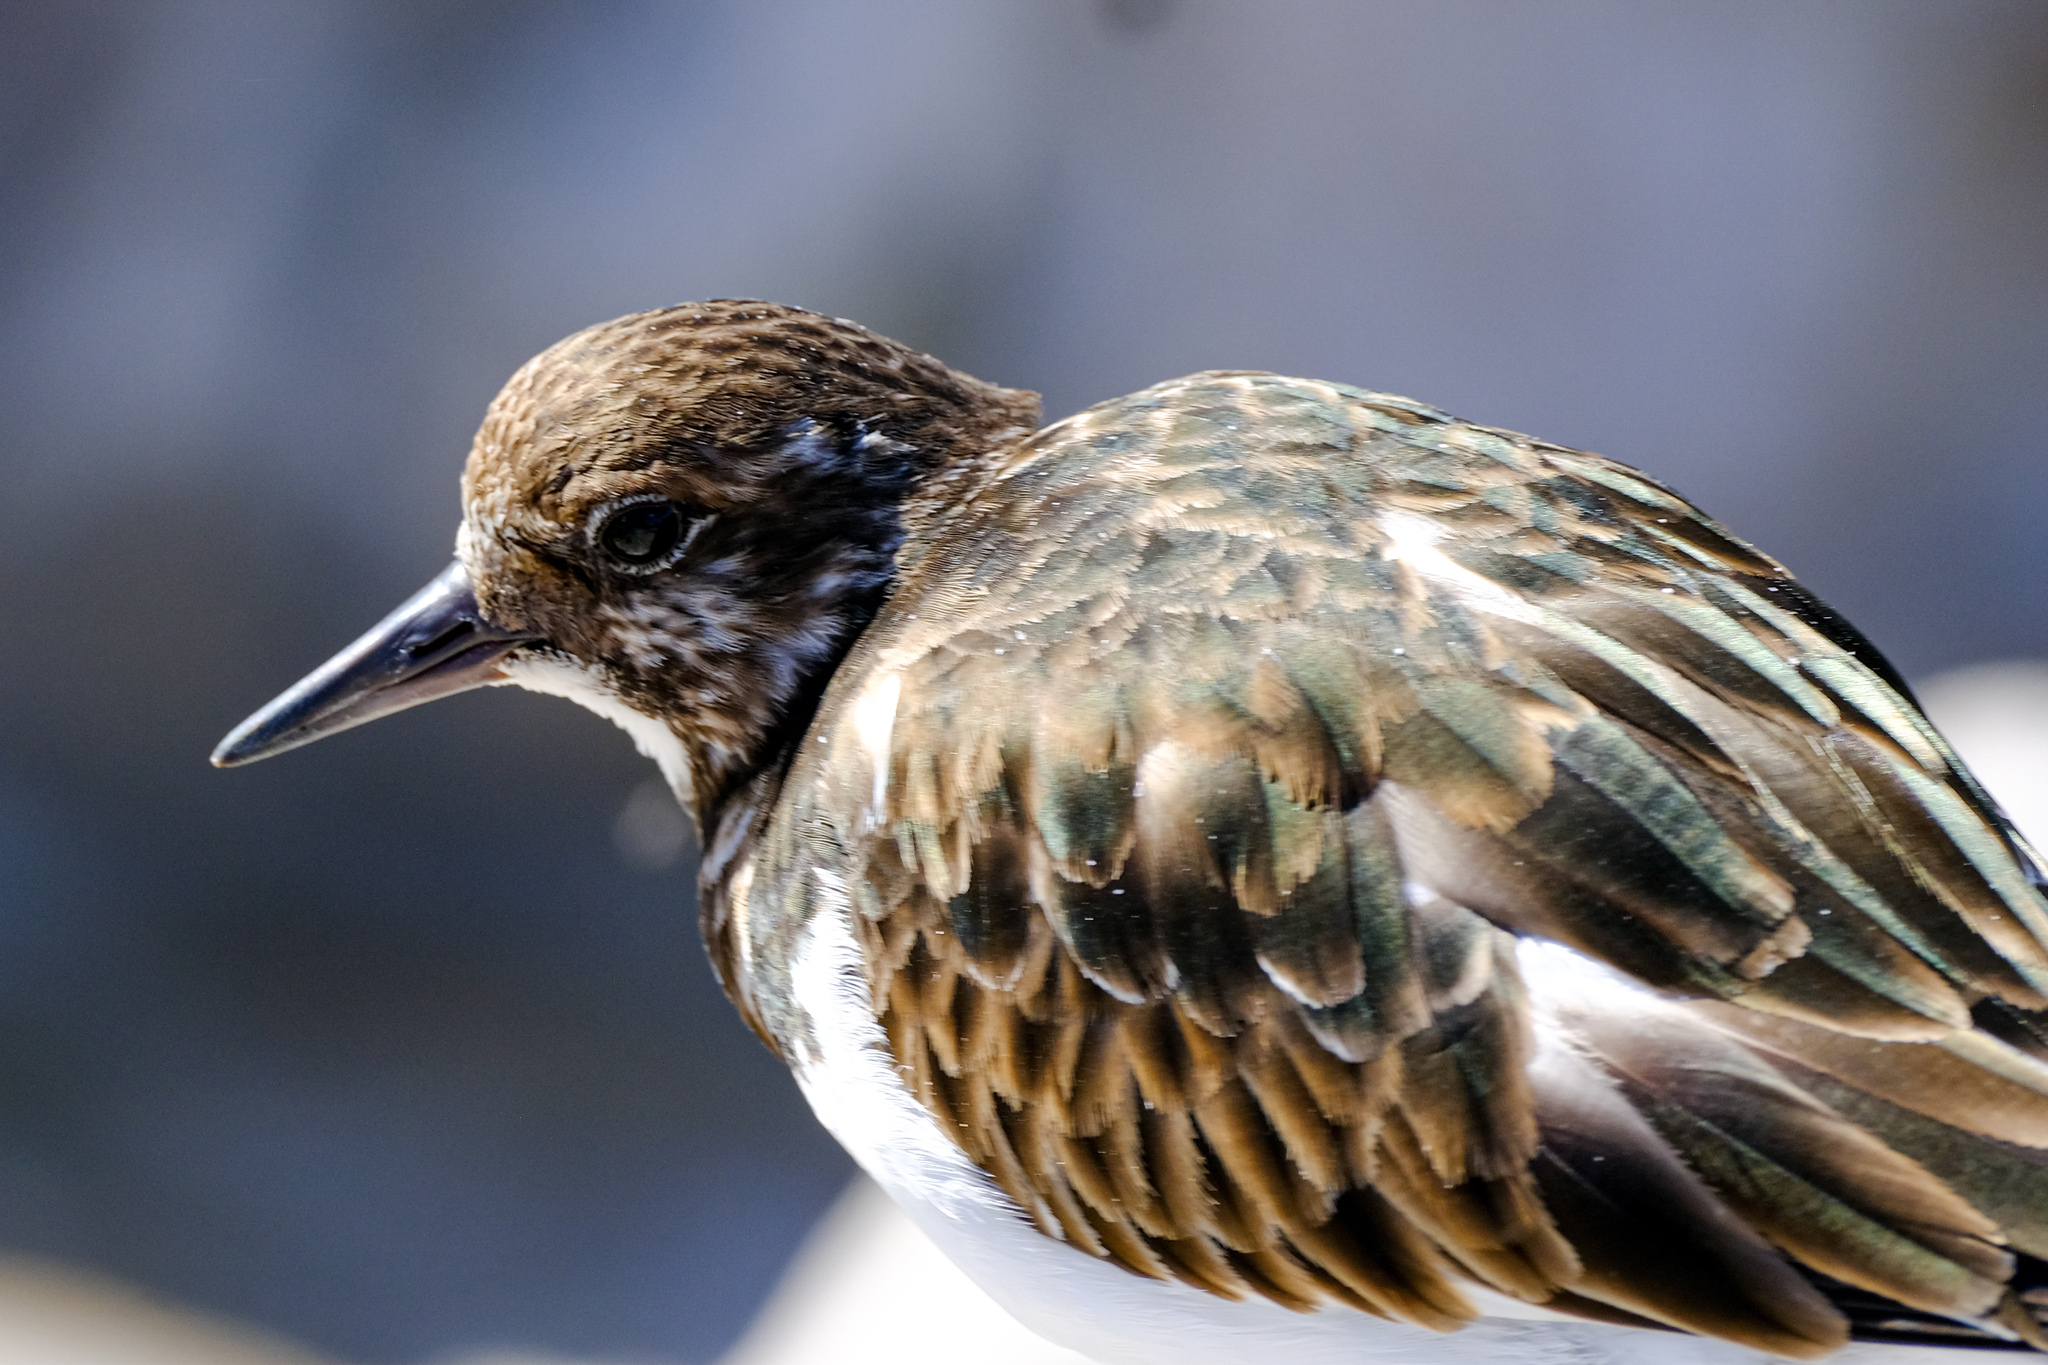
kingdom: Animalia
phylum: Chordata
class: Aves
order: Charadriiformes
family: Scolopacidae
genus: Arenaria
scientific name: Arenaria interpres
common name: Ruddy turnstone
